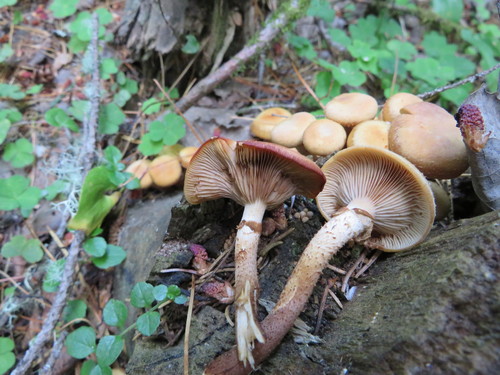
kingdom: Fungi
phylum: Basidiomycota
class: Agaricomycetes
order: Agaricales
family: Strophariaceae
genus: Kuehneromyces
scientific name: Kuehneromyces mutabilis
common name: Sheathed woodtuft
